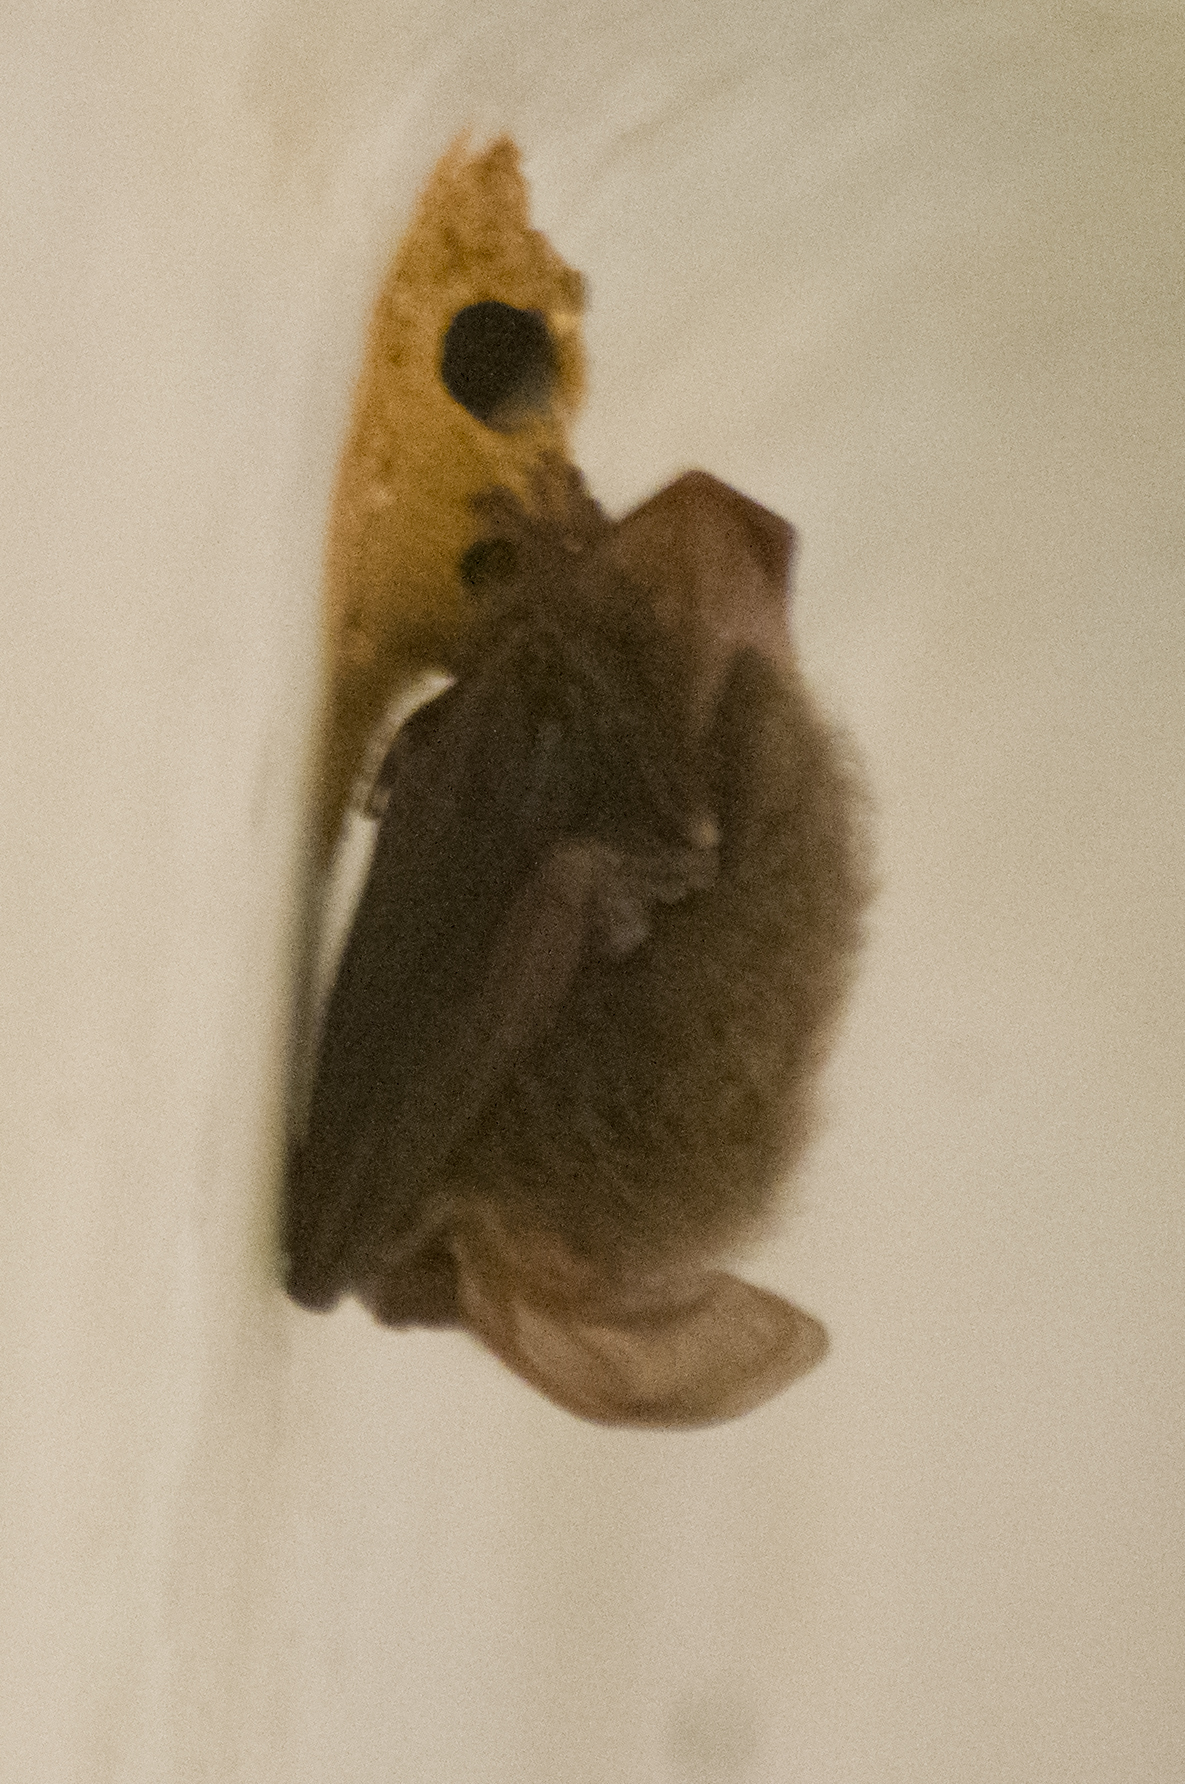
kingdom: Animalia
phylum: Chordata
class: Mammalia
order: Chiroptera
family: Vespertilionidae
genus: Corynorhinus
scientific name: Corynorhinus rafinesquii
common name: Rafinesque's big-eared bat
